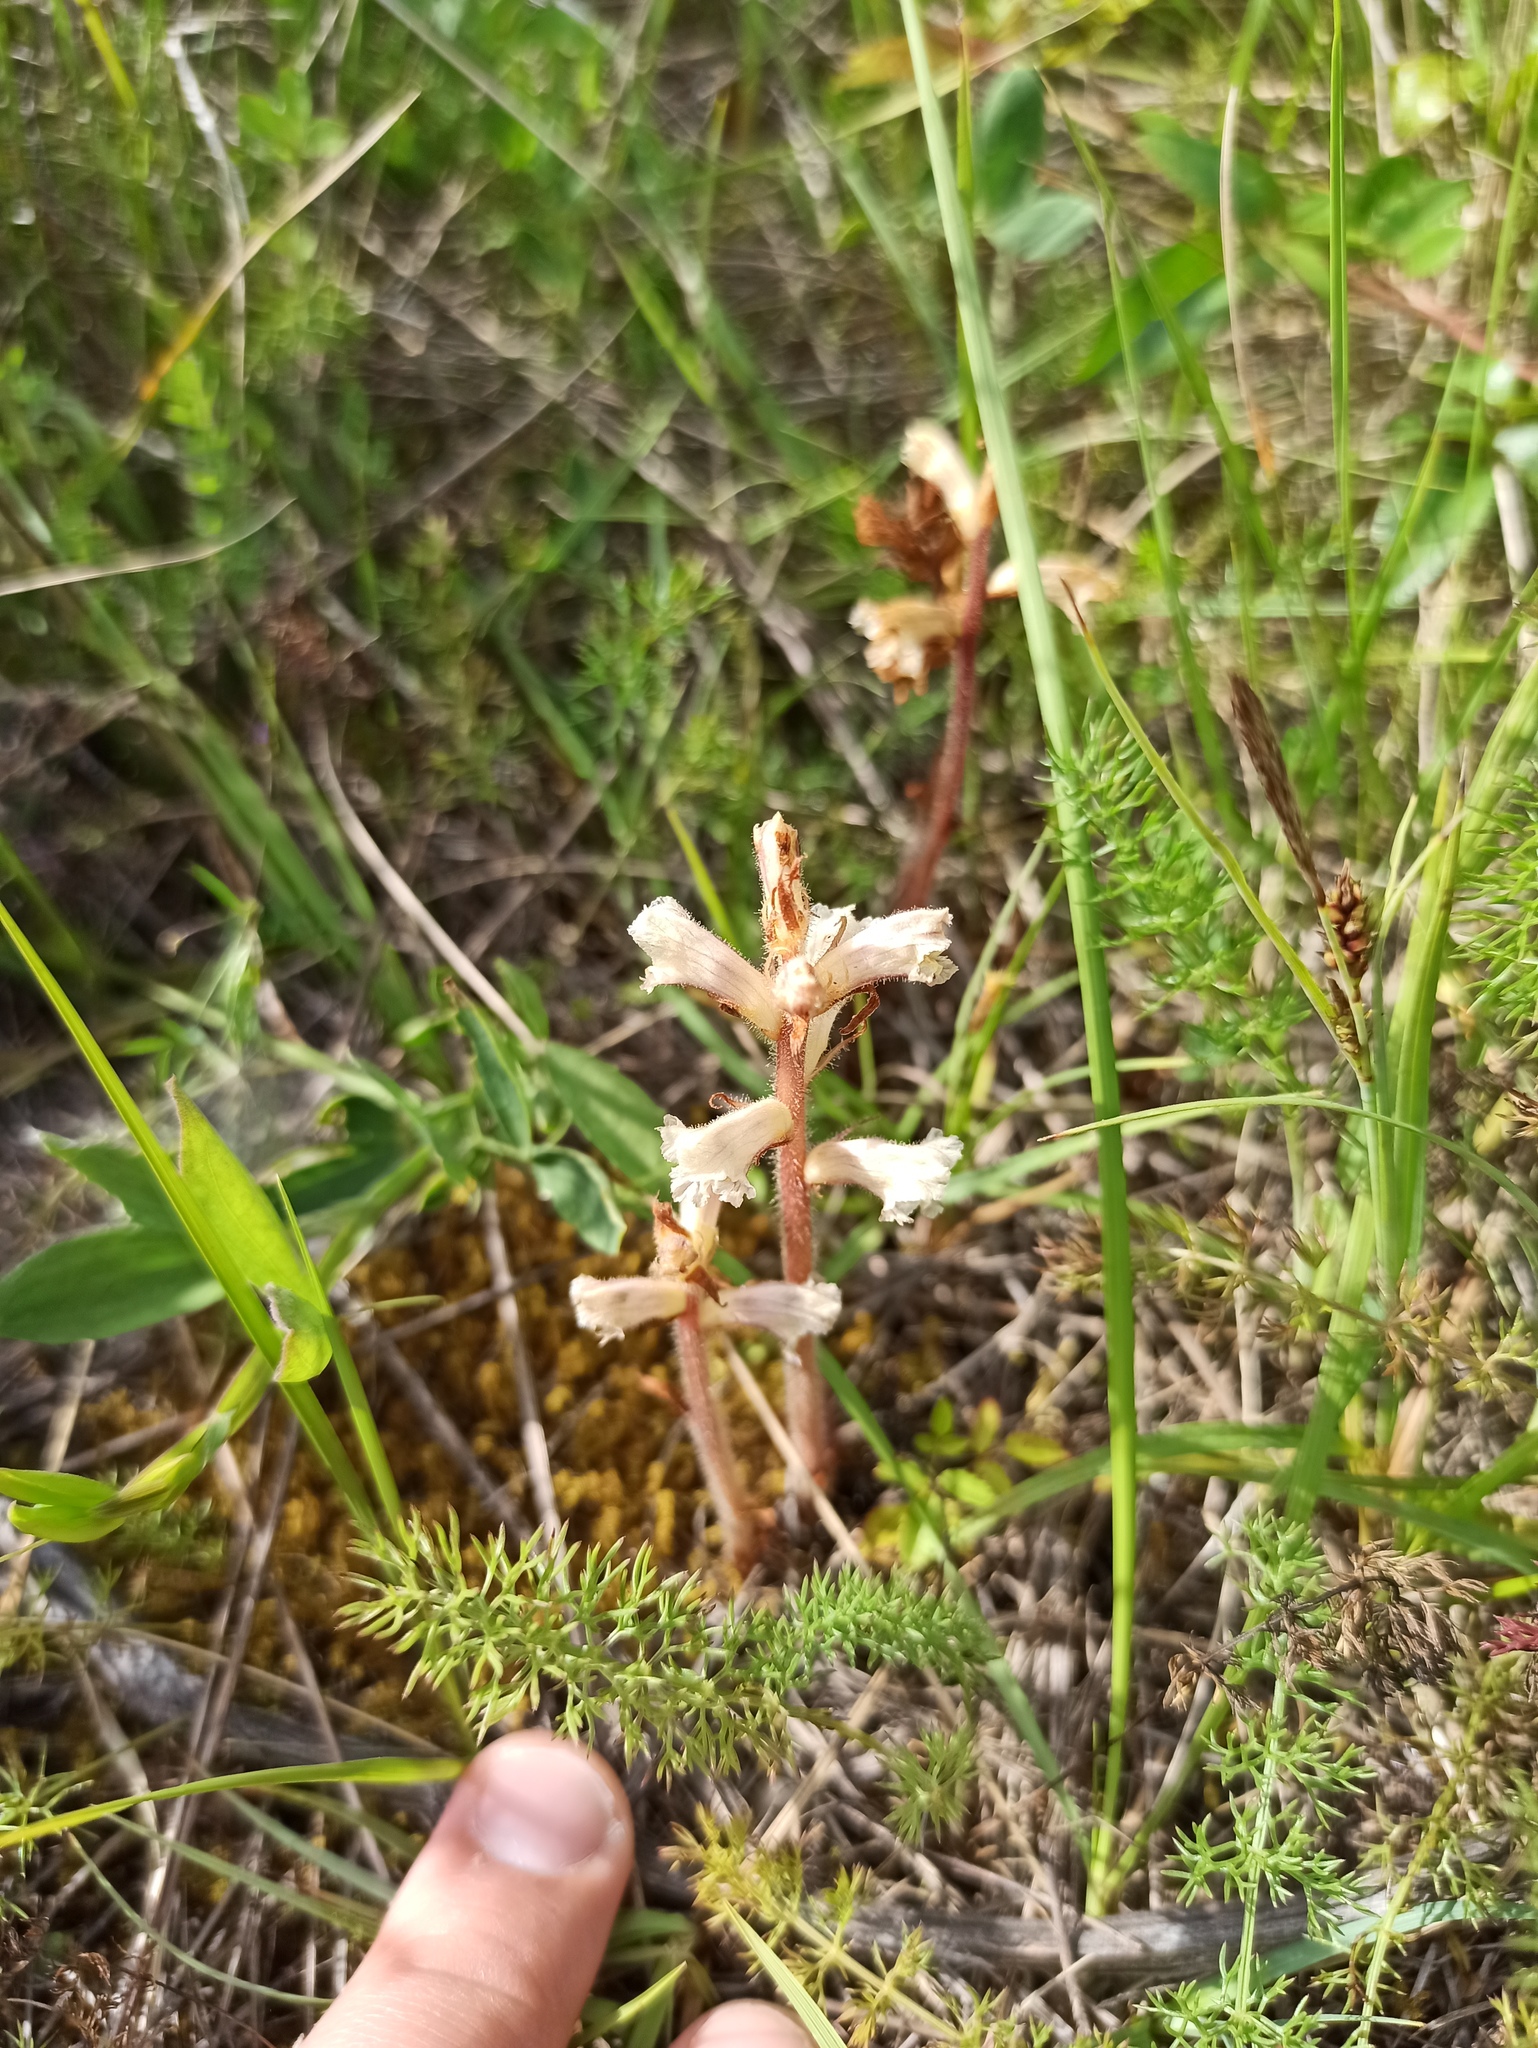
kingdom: Plantae
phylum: Tracheophyta
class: Magnoliopsida
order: Lamiales
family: Orobanchaceae
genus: Orobanche
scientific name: Orobanche minor
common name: Common broomrape
